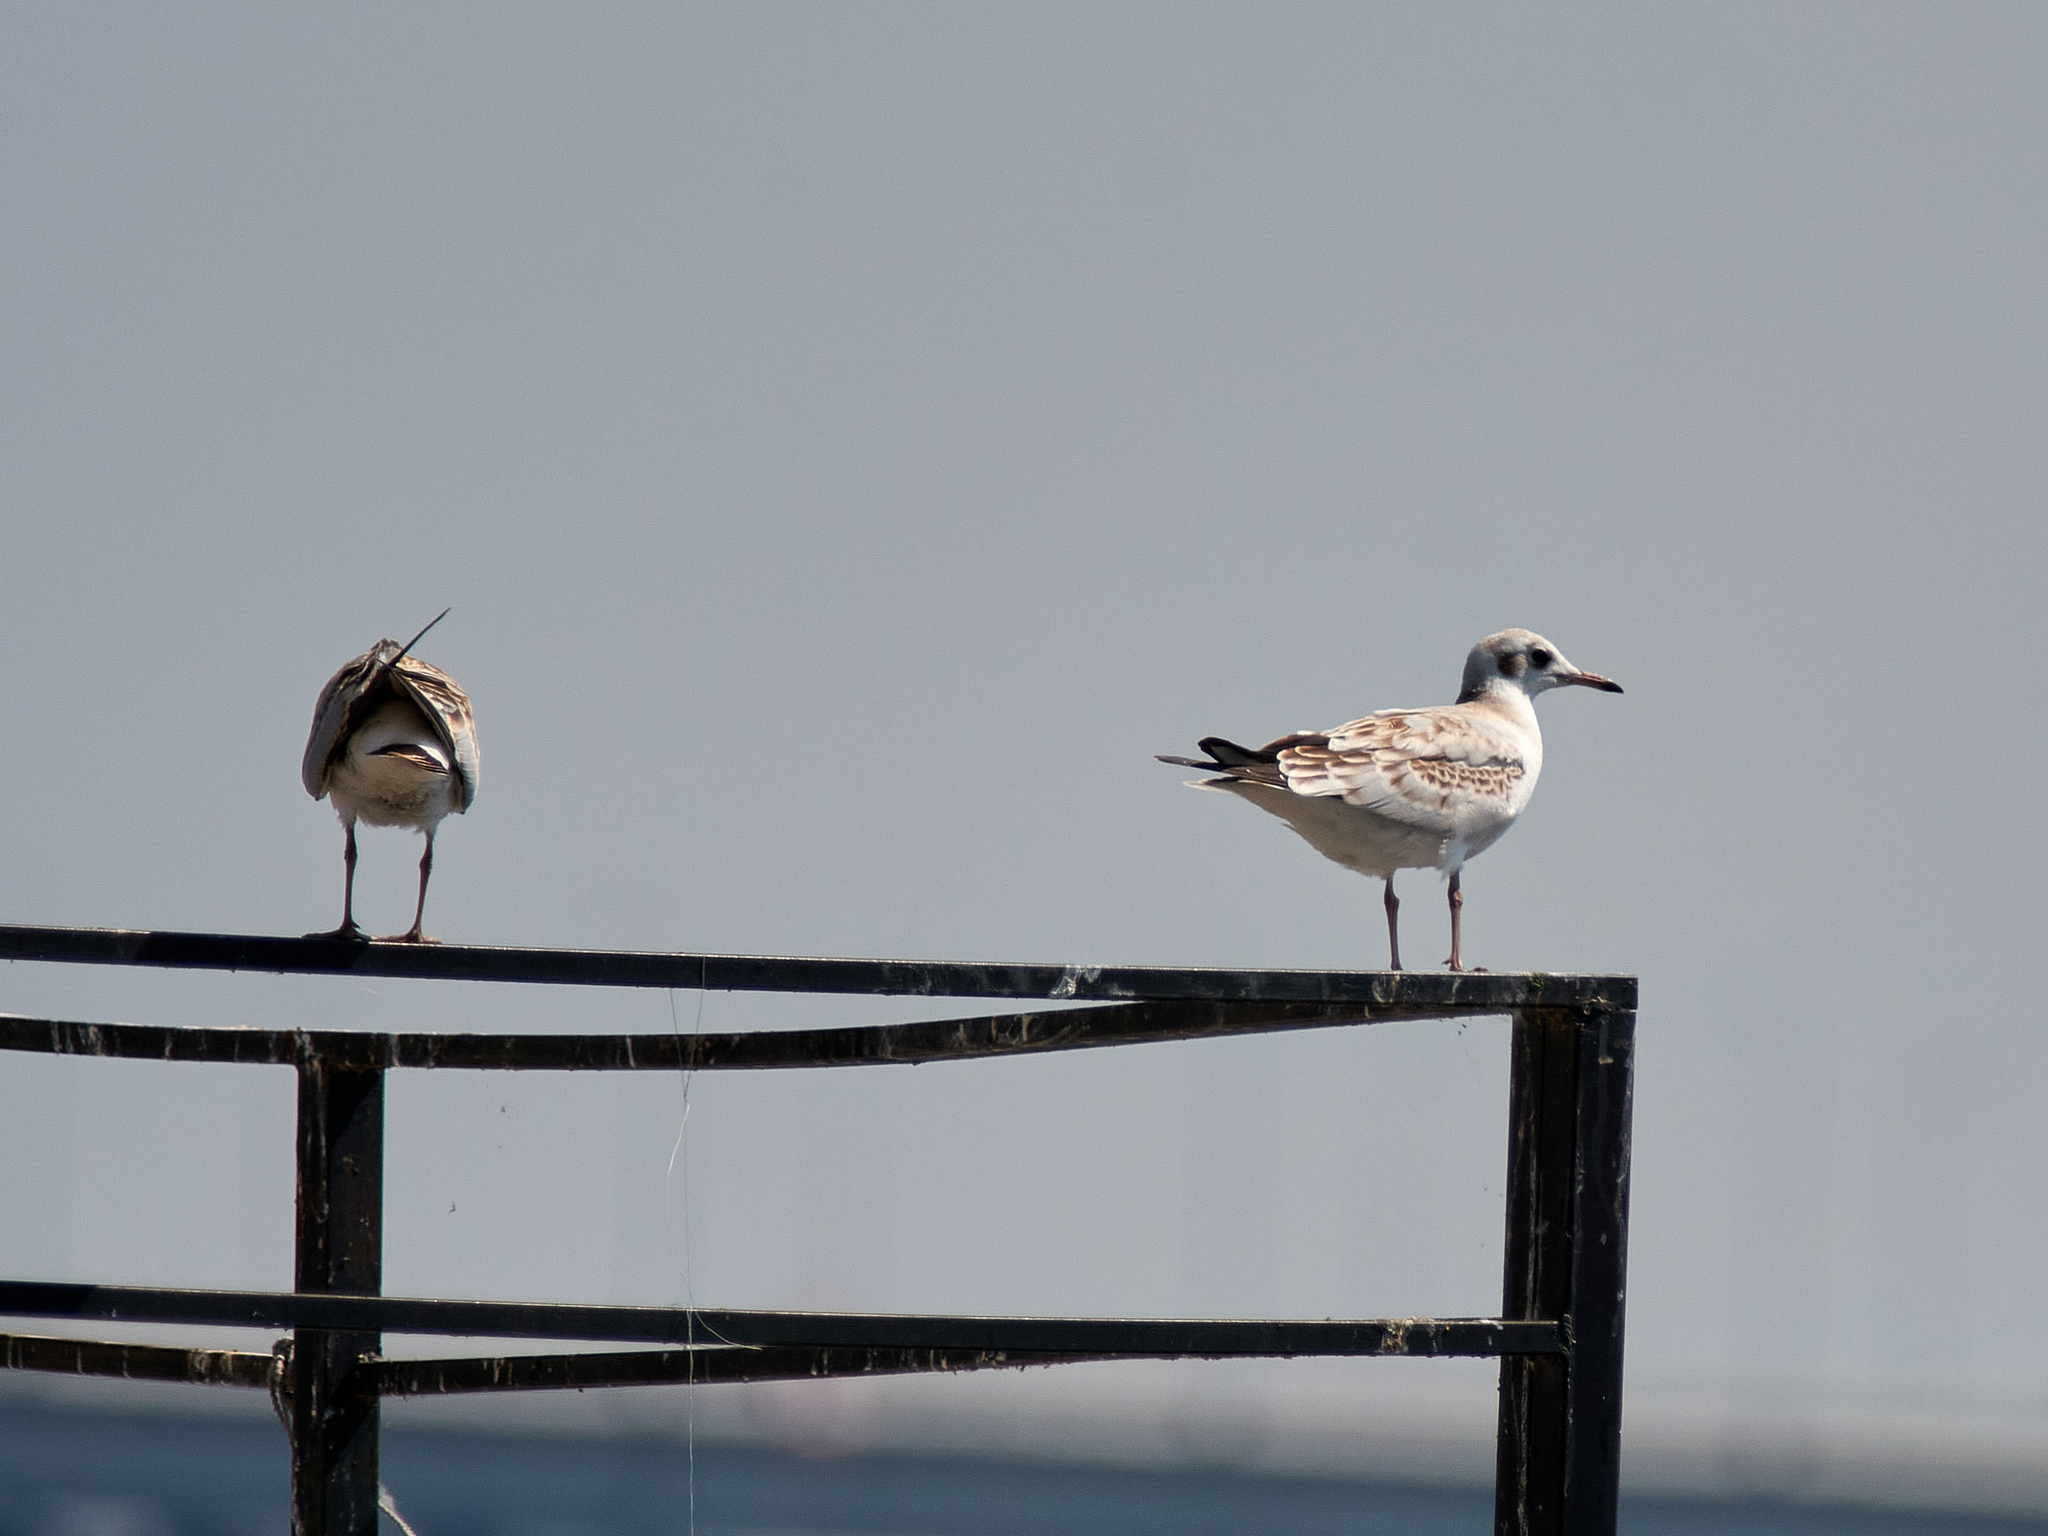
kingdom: Animalia
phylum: Chordata
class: Aves
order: Charadriiformes
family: Laridae
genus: Chroicocephalus
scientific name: Chroicocephalus ridibundus
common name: Black-headed gull
